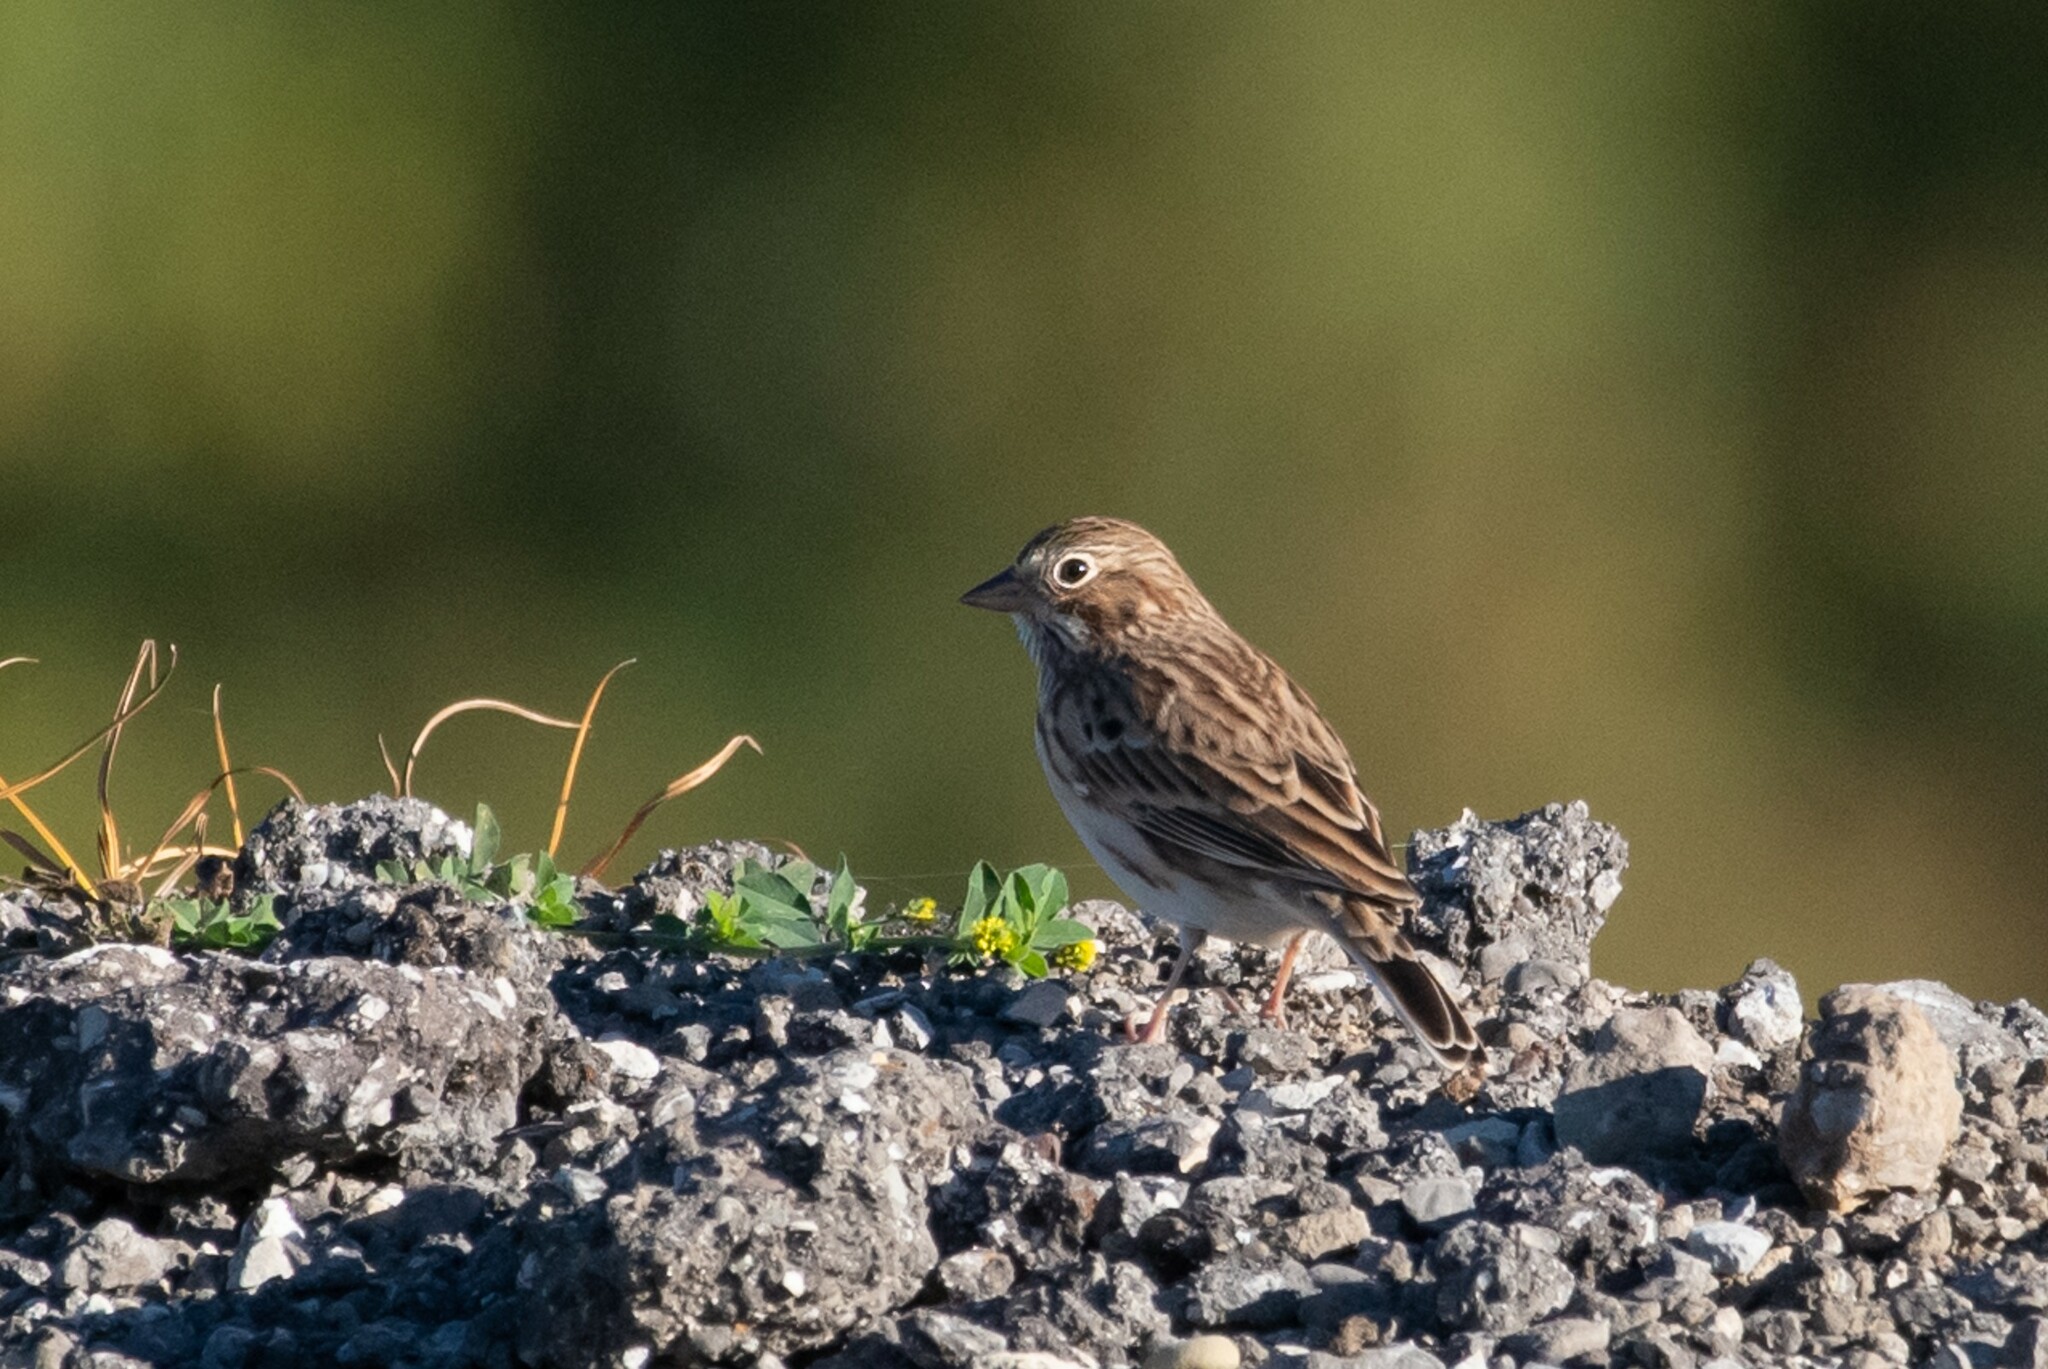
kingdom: Animalia
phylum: Chordata
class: Aves
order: Passeriformes
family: Passerellidae
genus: Pooecetes
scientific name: Pooecetes gramineus
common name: Vesper sparrow
